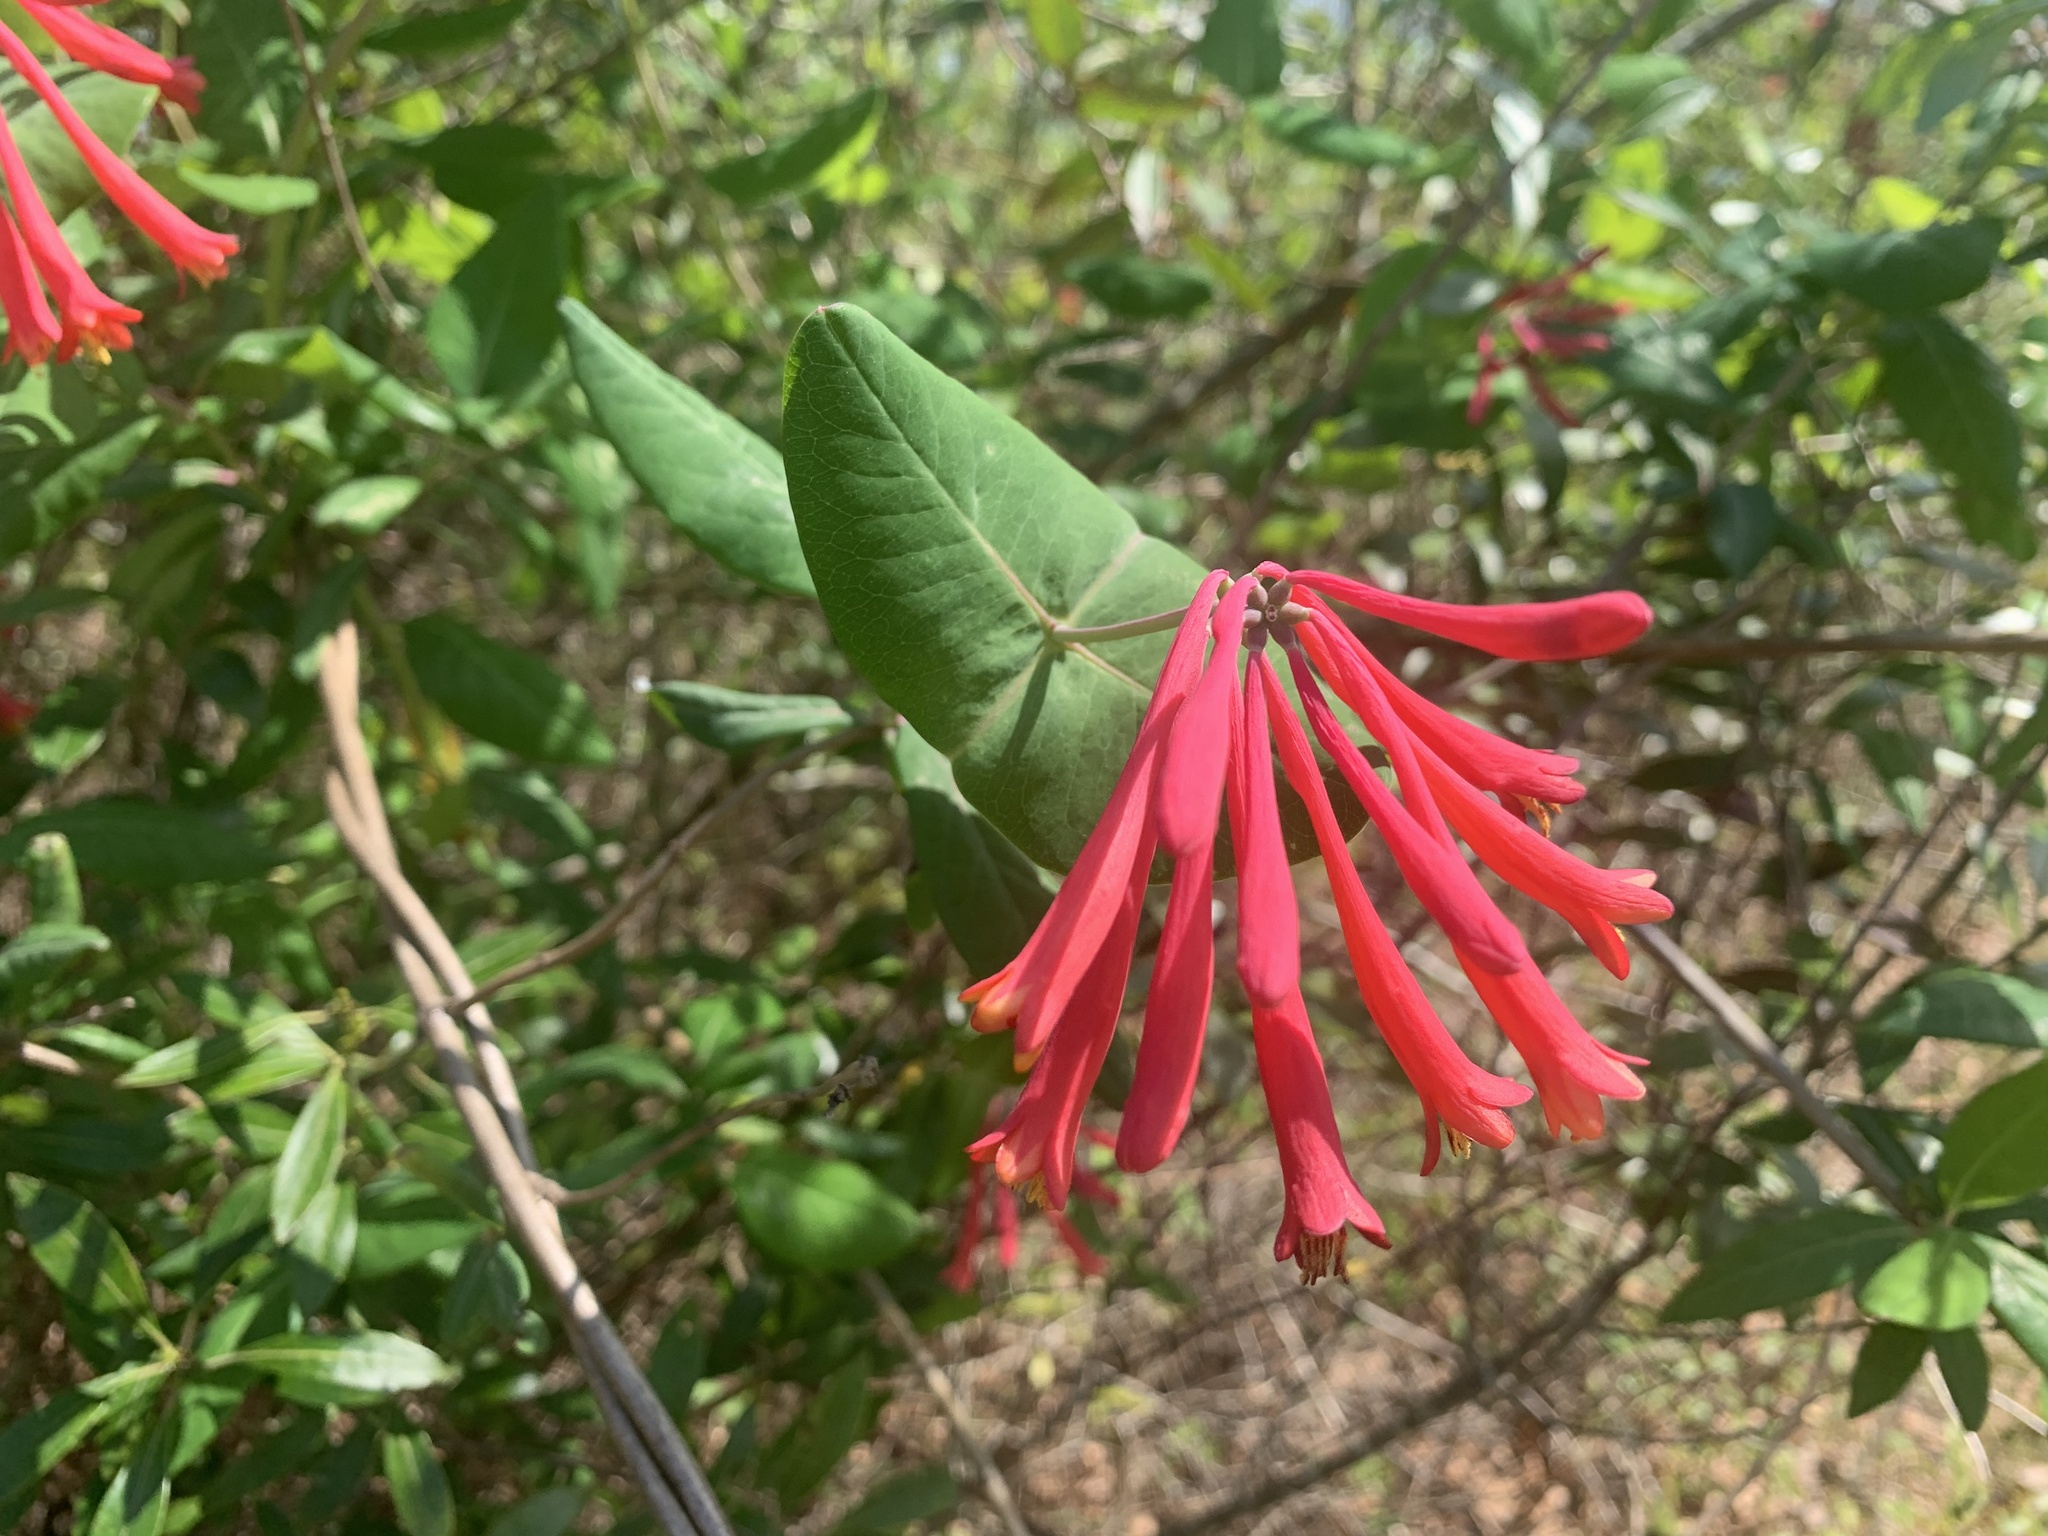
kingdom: Plantae
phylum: Tracheophyta
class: Magnoliopsida
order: Dipsacales
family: Caprifoliaceae
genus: Lonicera
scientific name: Lonicera sempervirens
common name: Coral honeysuckle
